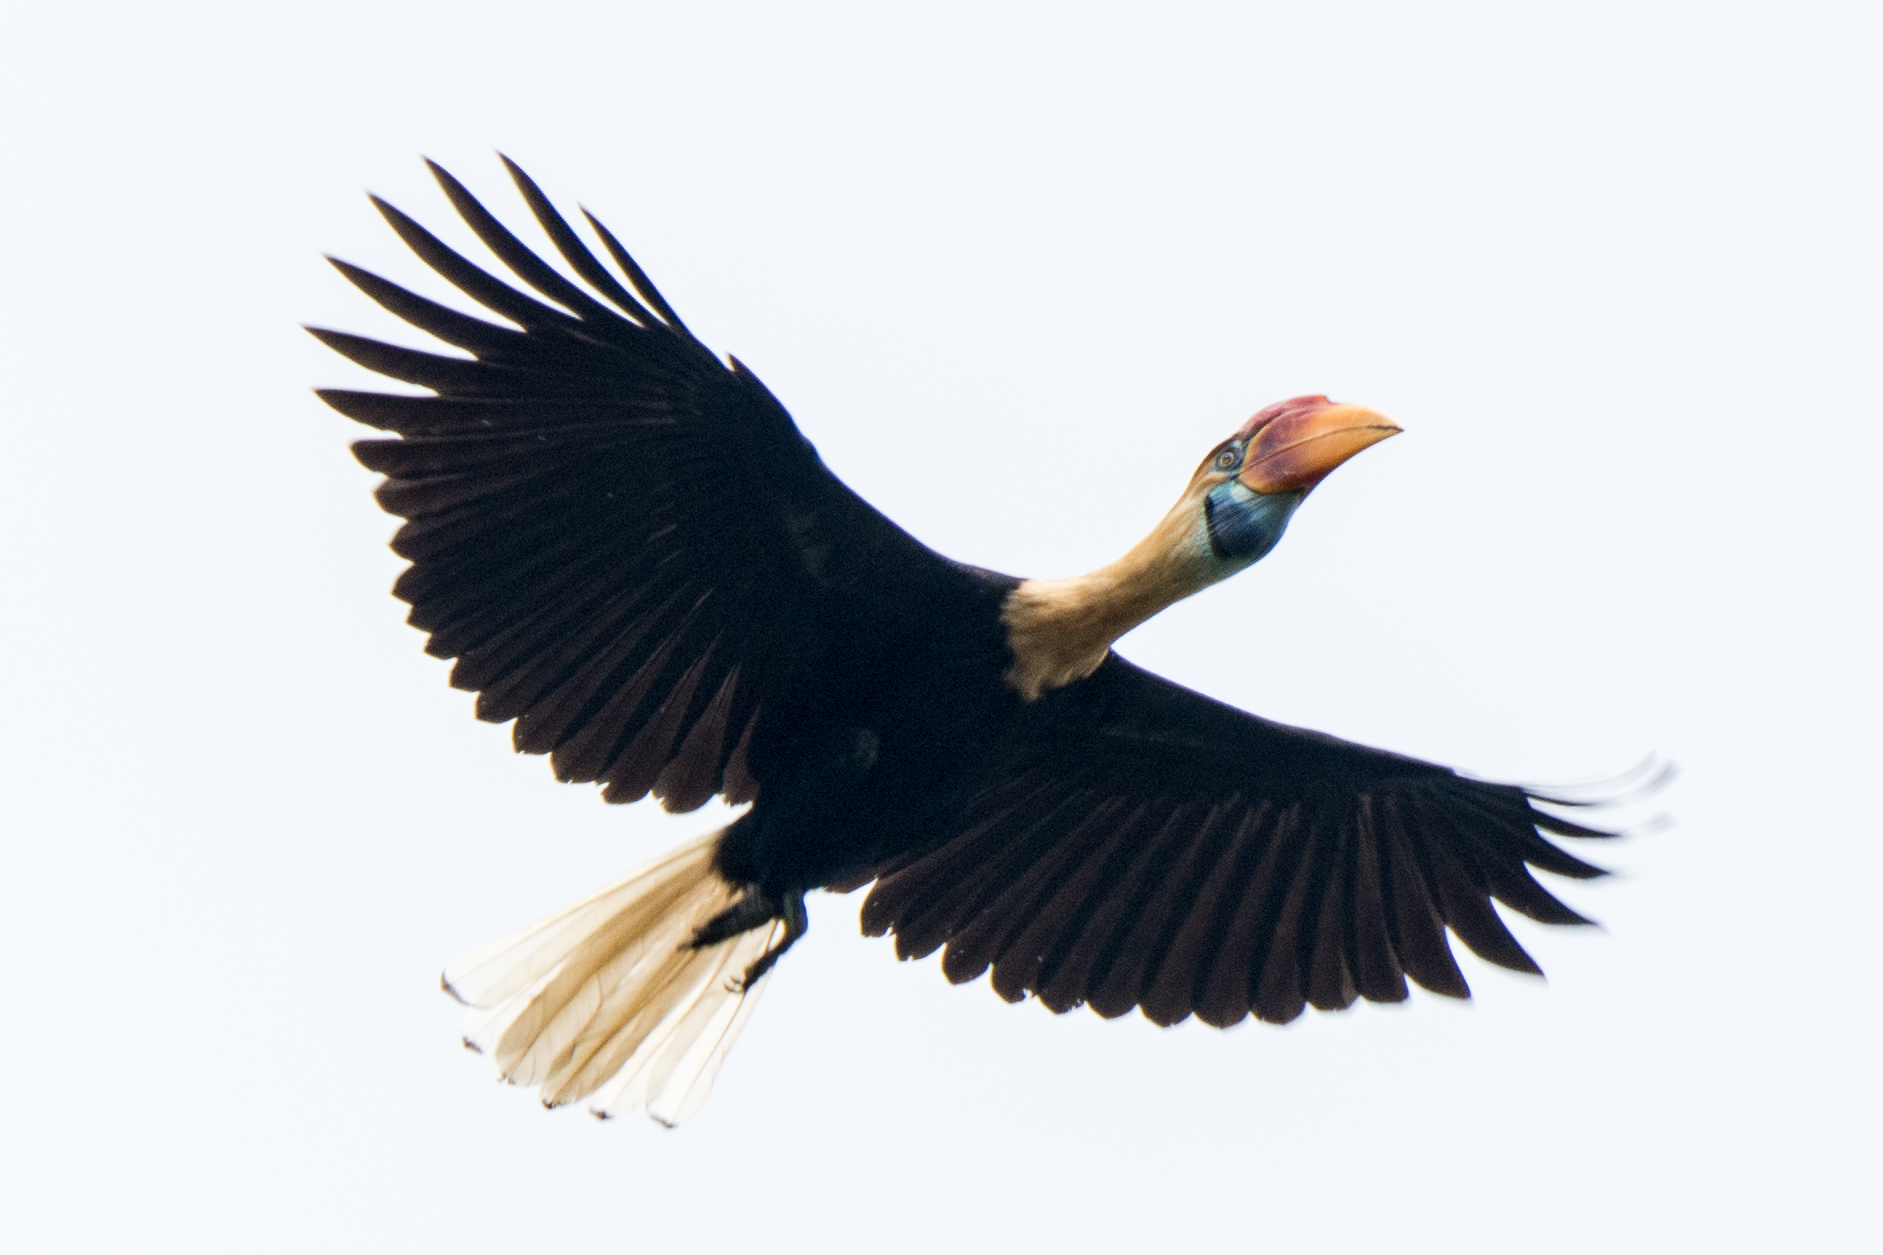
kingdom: Animalia
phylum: Chordata
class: Aves
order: Bucerotiformes
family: Bucerotidae
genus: Rhyticeros
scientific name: Rhyticeros cassidix
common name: Knobbed hornbill
